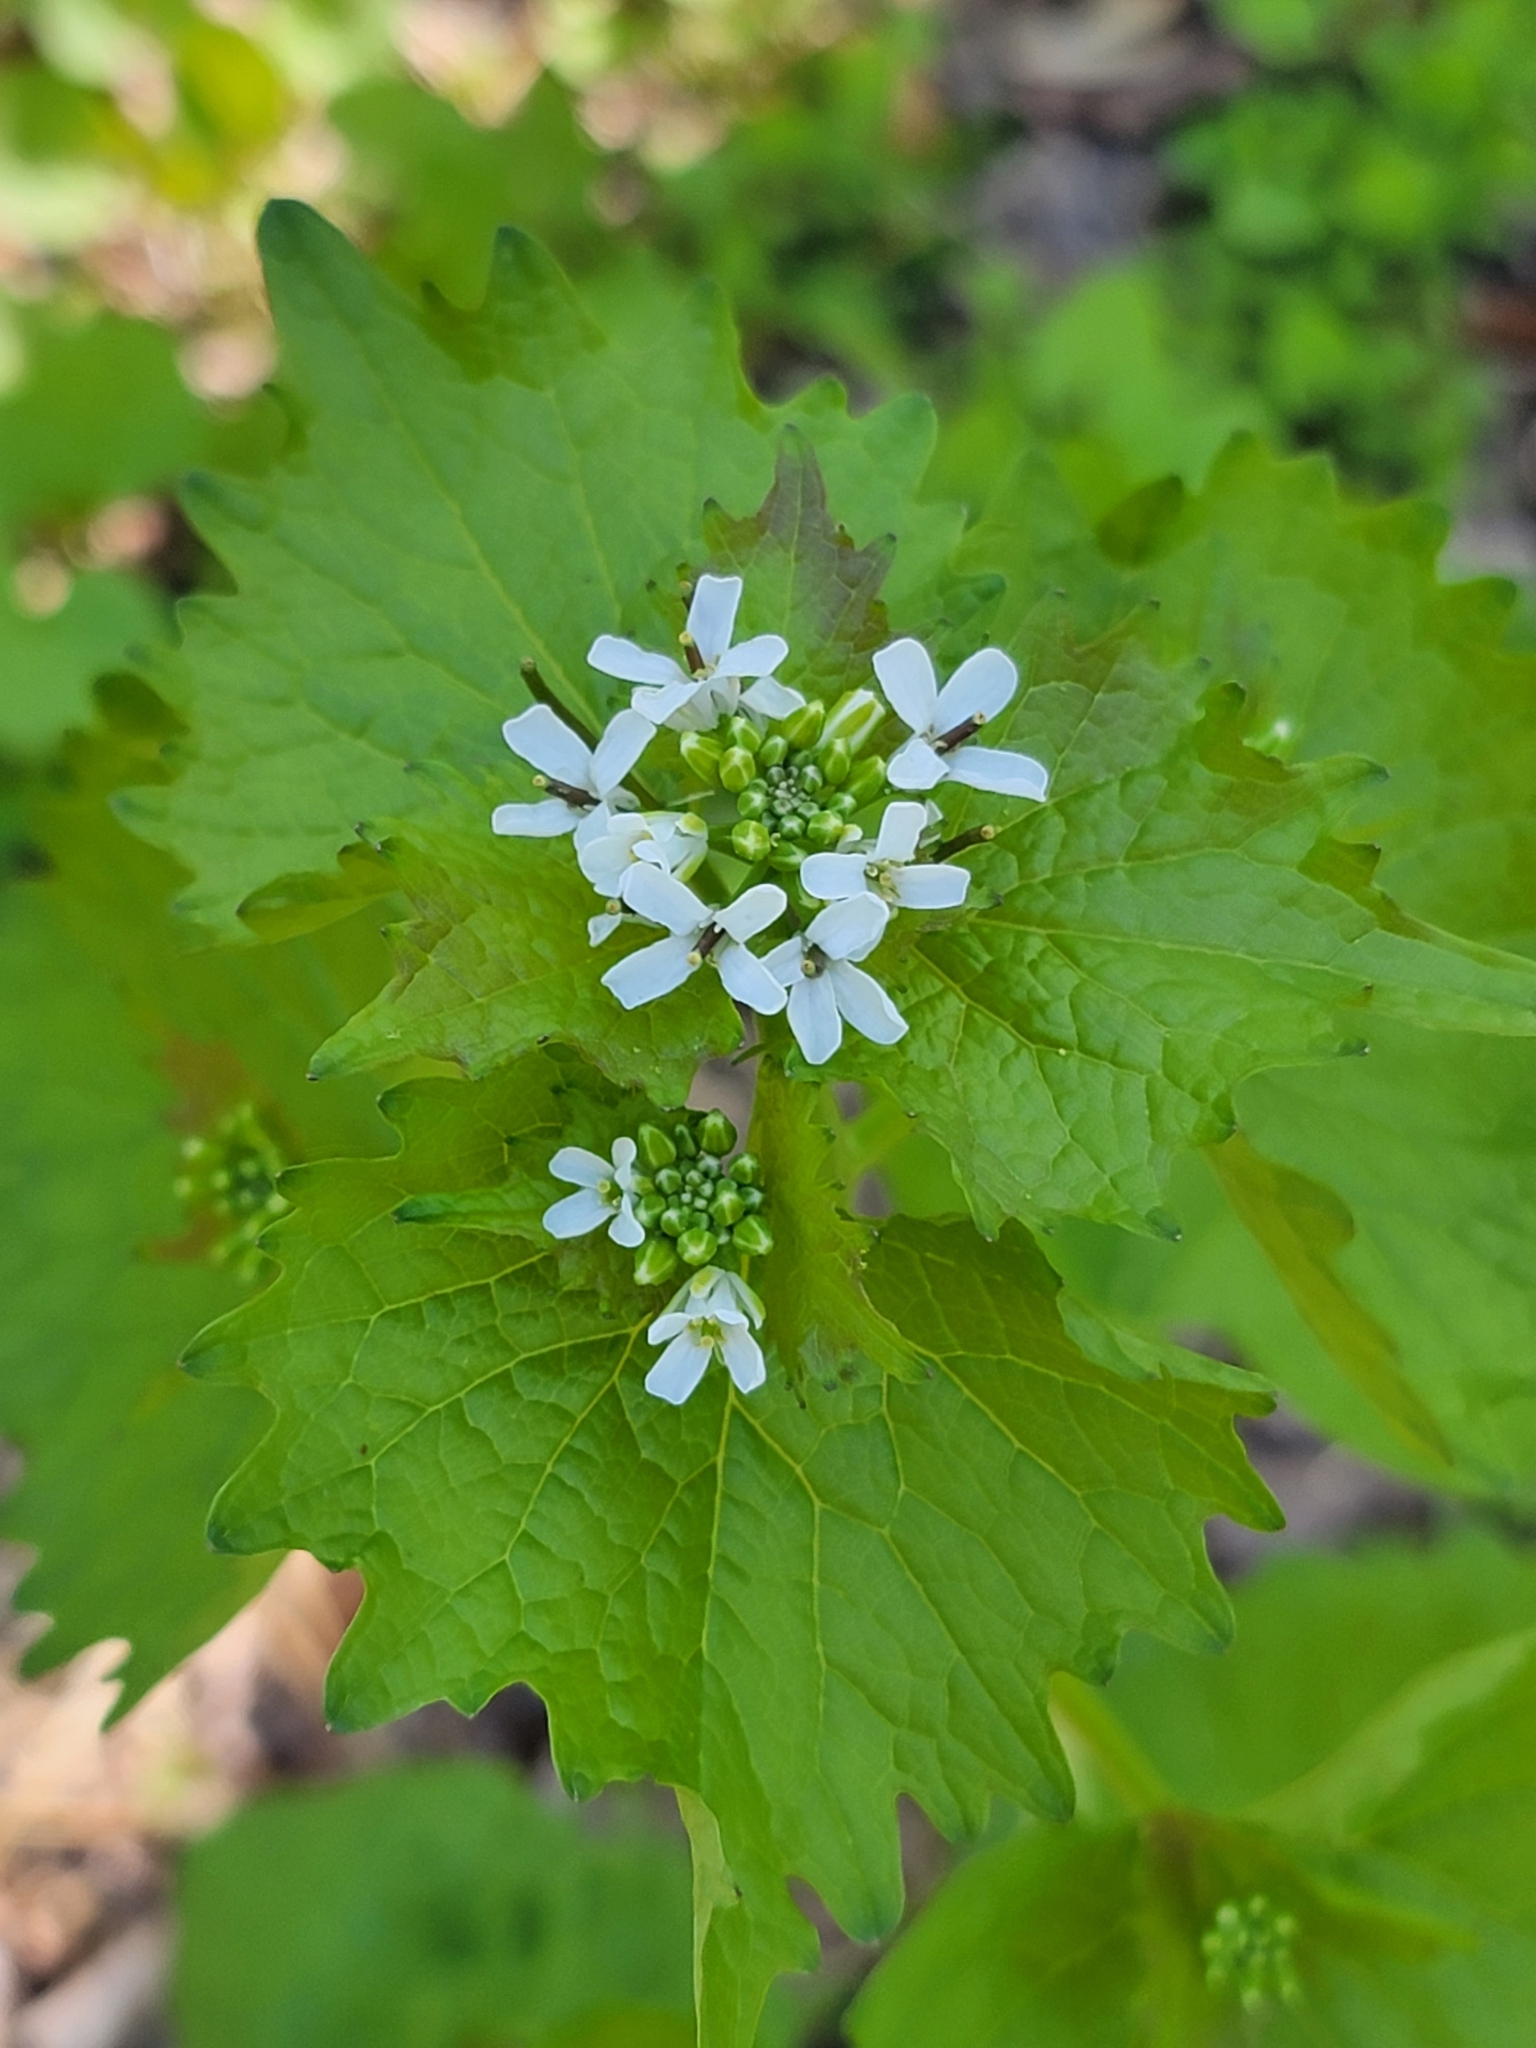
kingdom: Plantae
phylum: Tracheophyta
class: Magnoliopsida
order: Brassicales
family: Brassicaceae
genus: Alliaria
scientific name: Alliaria petiolata
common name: Garlic mustard
